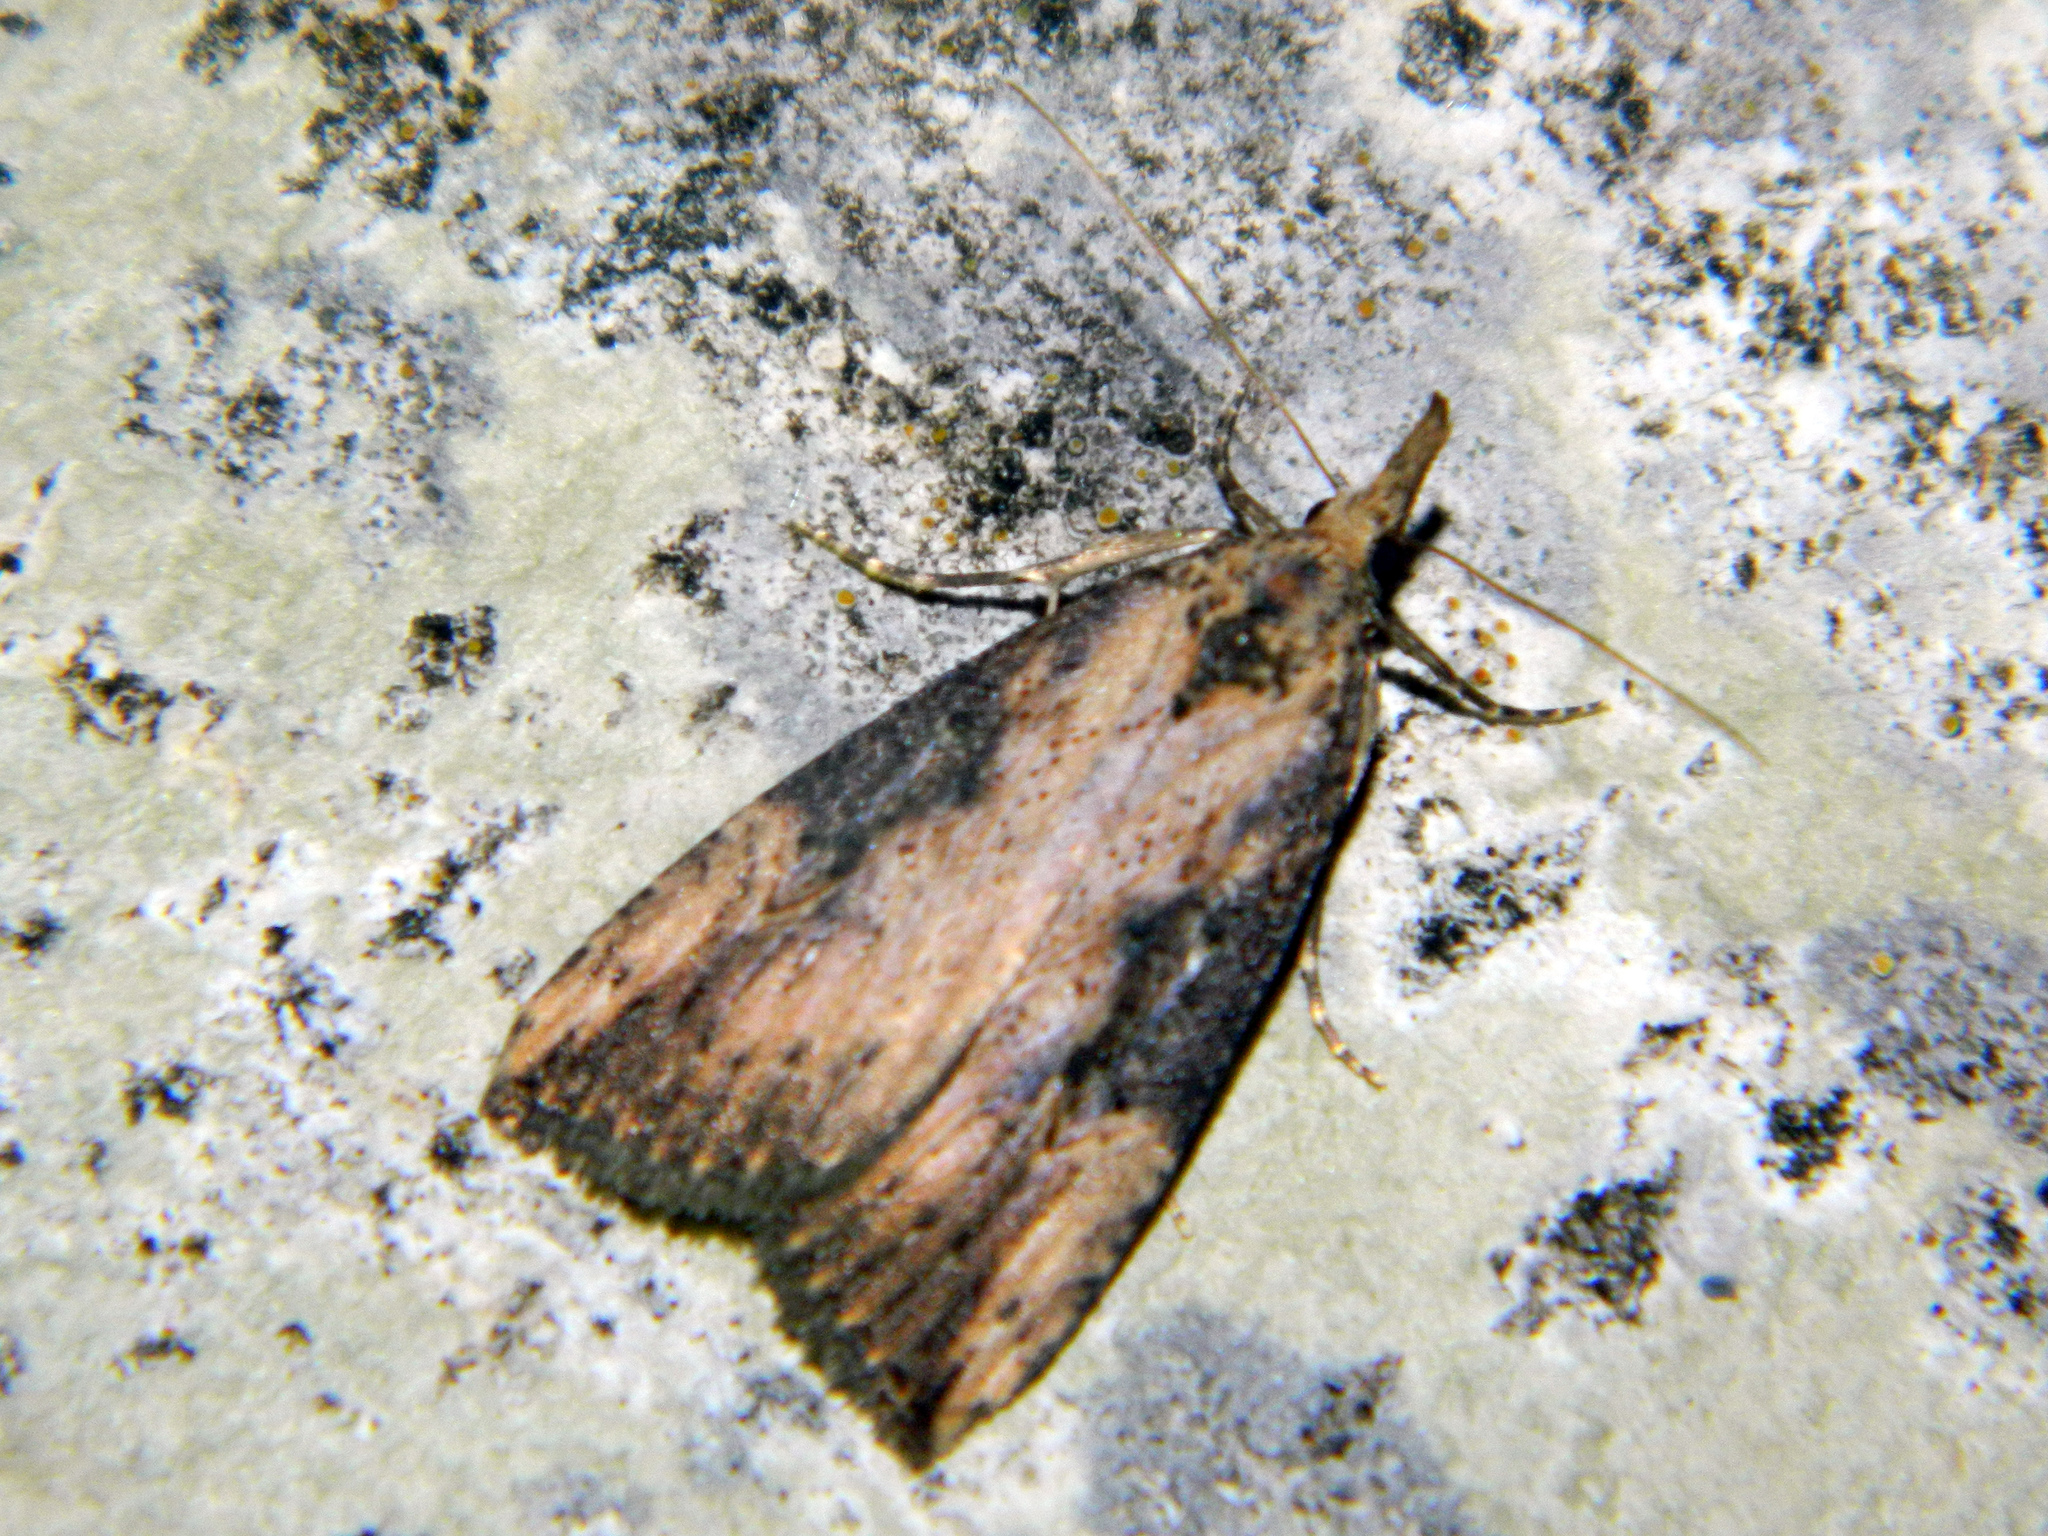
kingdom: Animalia
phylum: Arthropoda
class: Insecta
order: Lepidoptera
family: Erebidae
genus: Hypena
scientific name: Hypena humuli
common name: Hop vine snout
